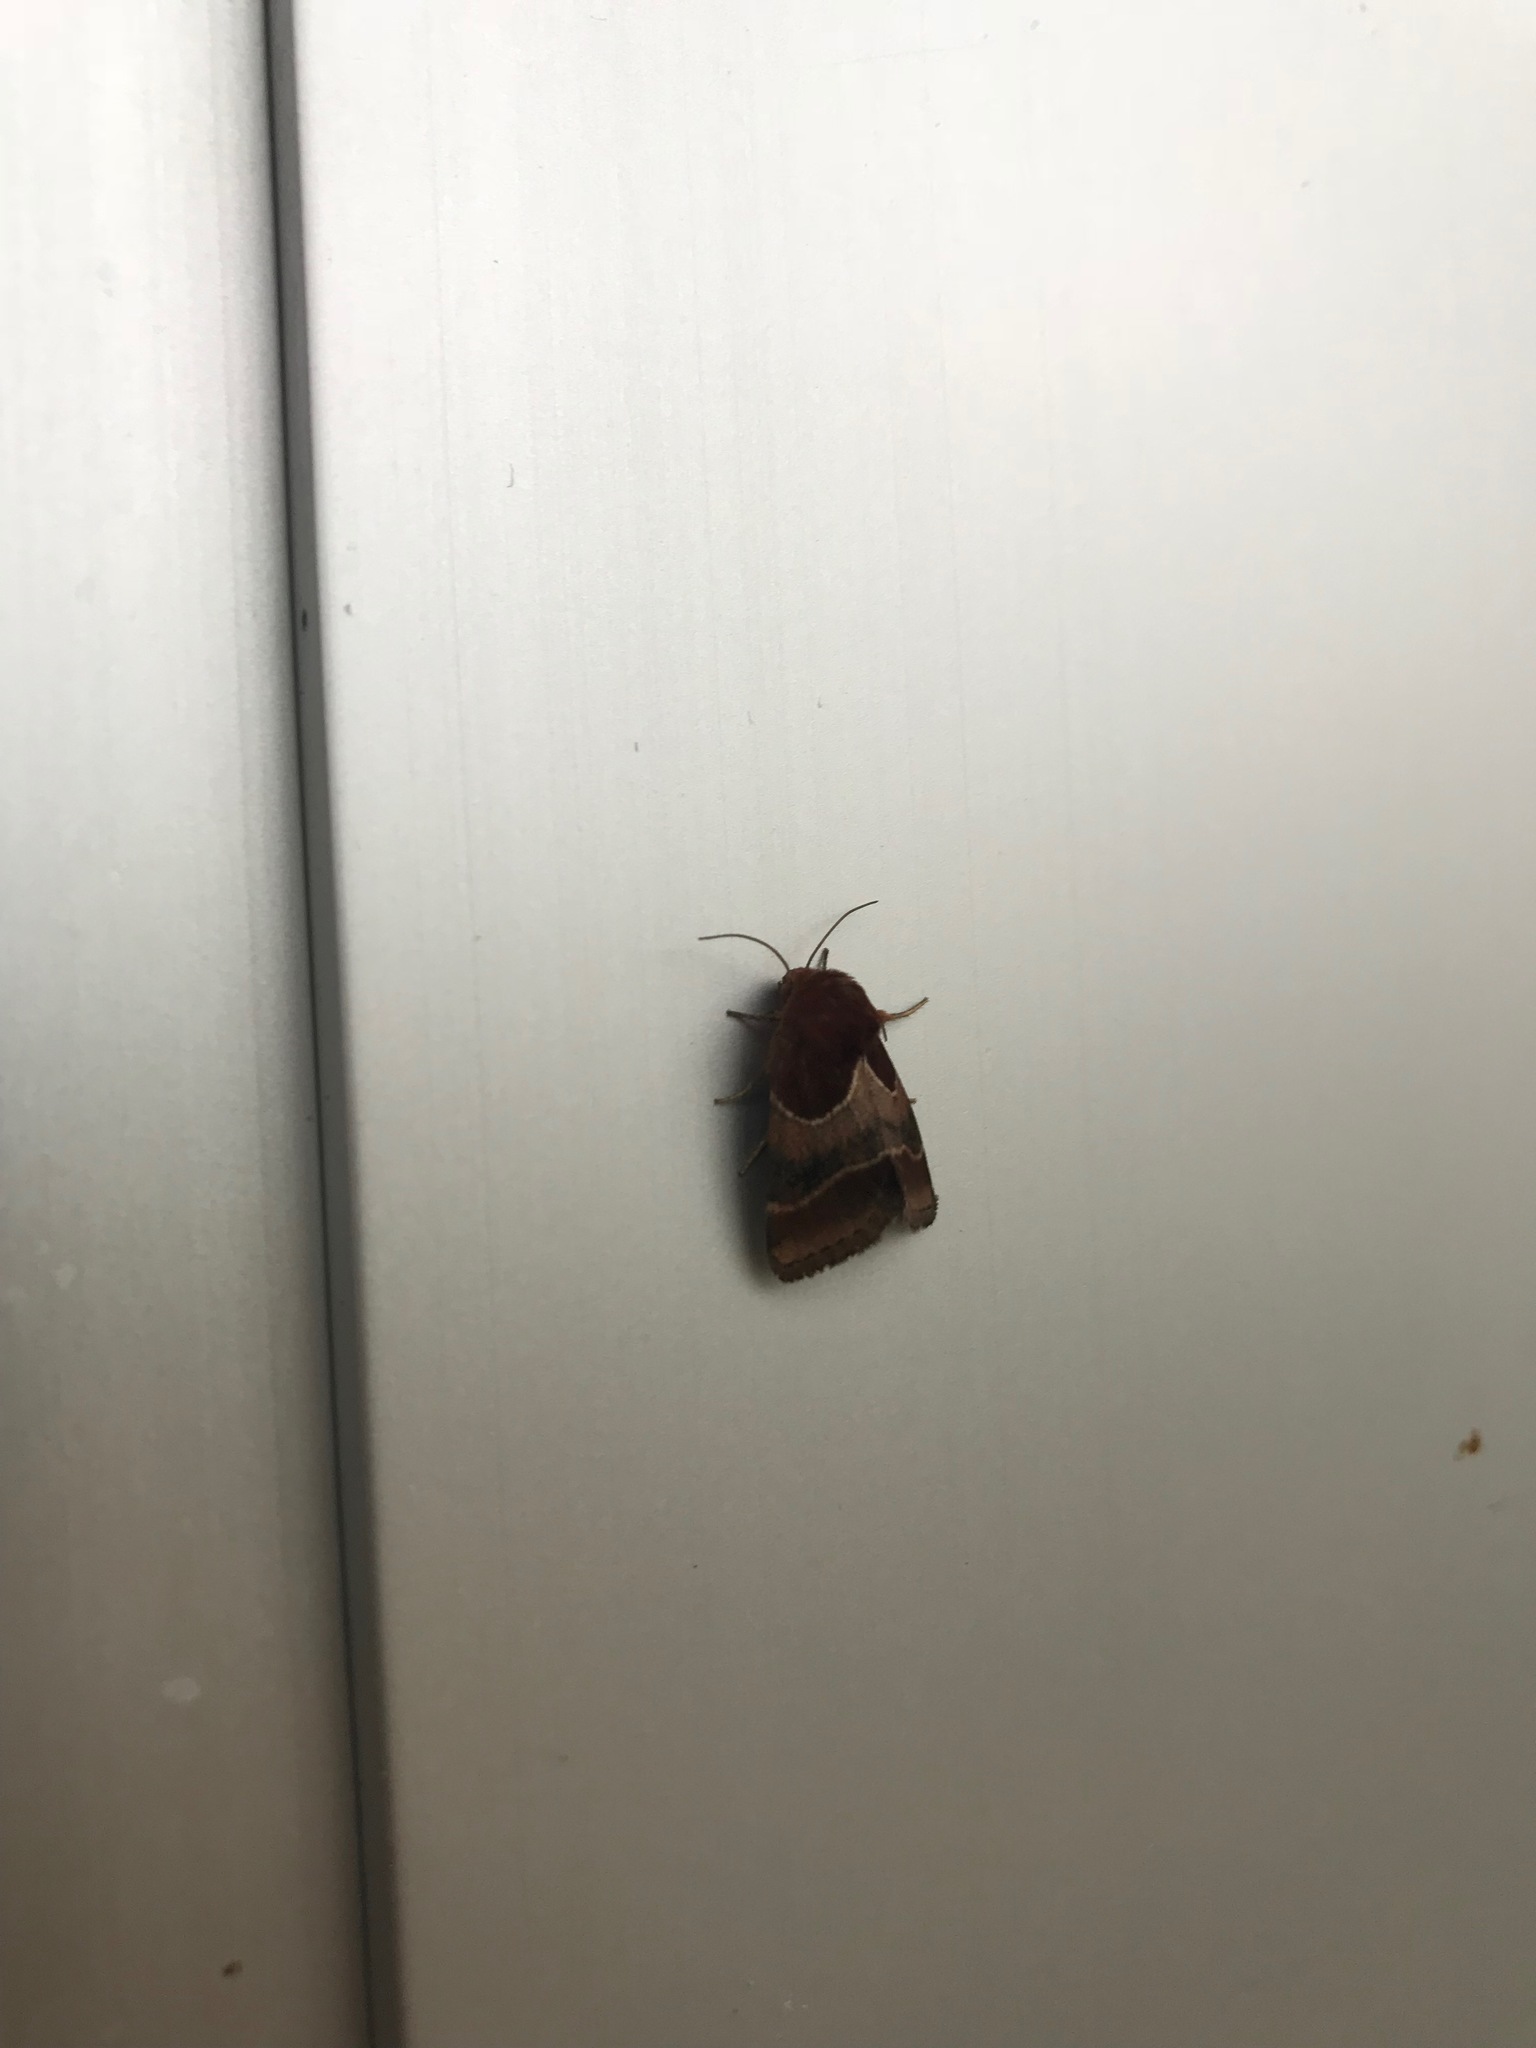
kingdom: Animalia
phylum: Arthropoda
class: Insecta
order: Lepidoptera
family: Noctuidae
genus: Schinia
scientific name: Schinia arcigera
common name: Arcigera flower moth
